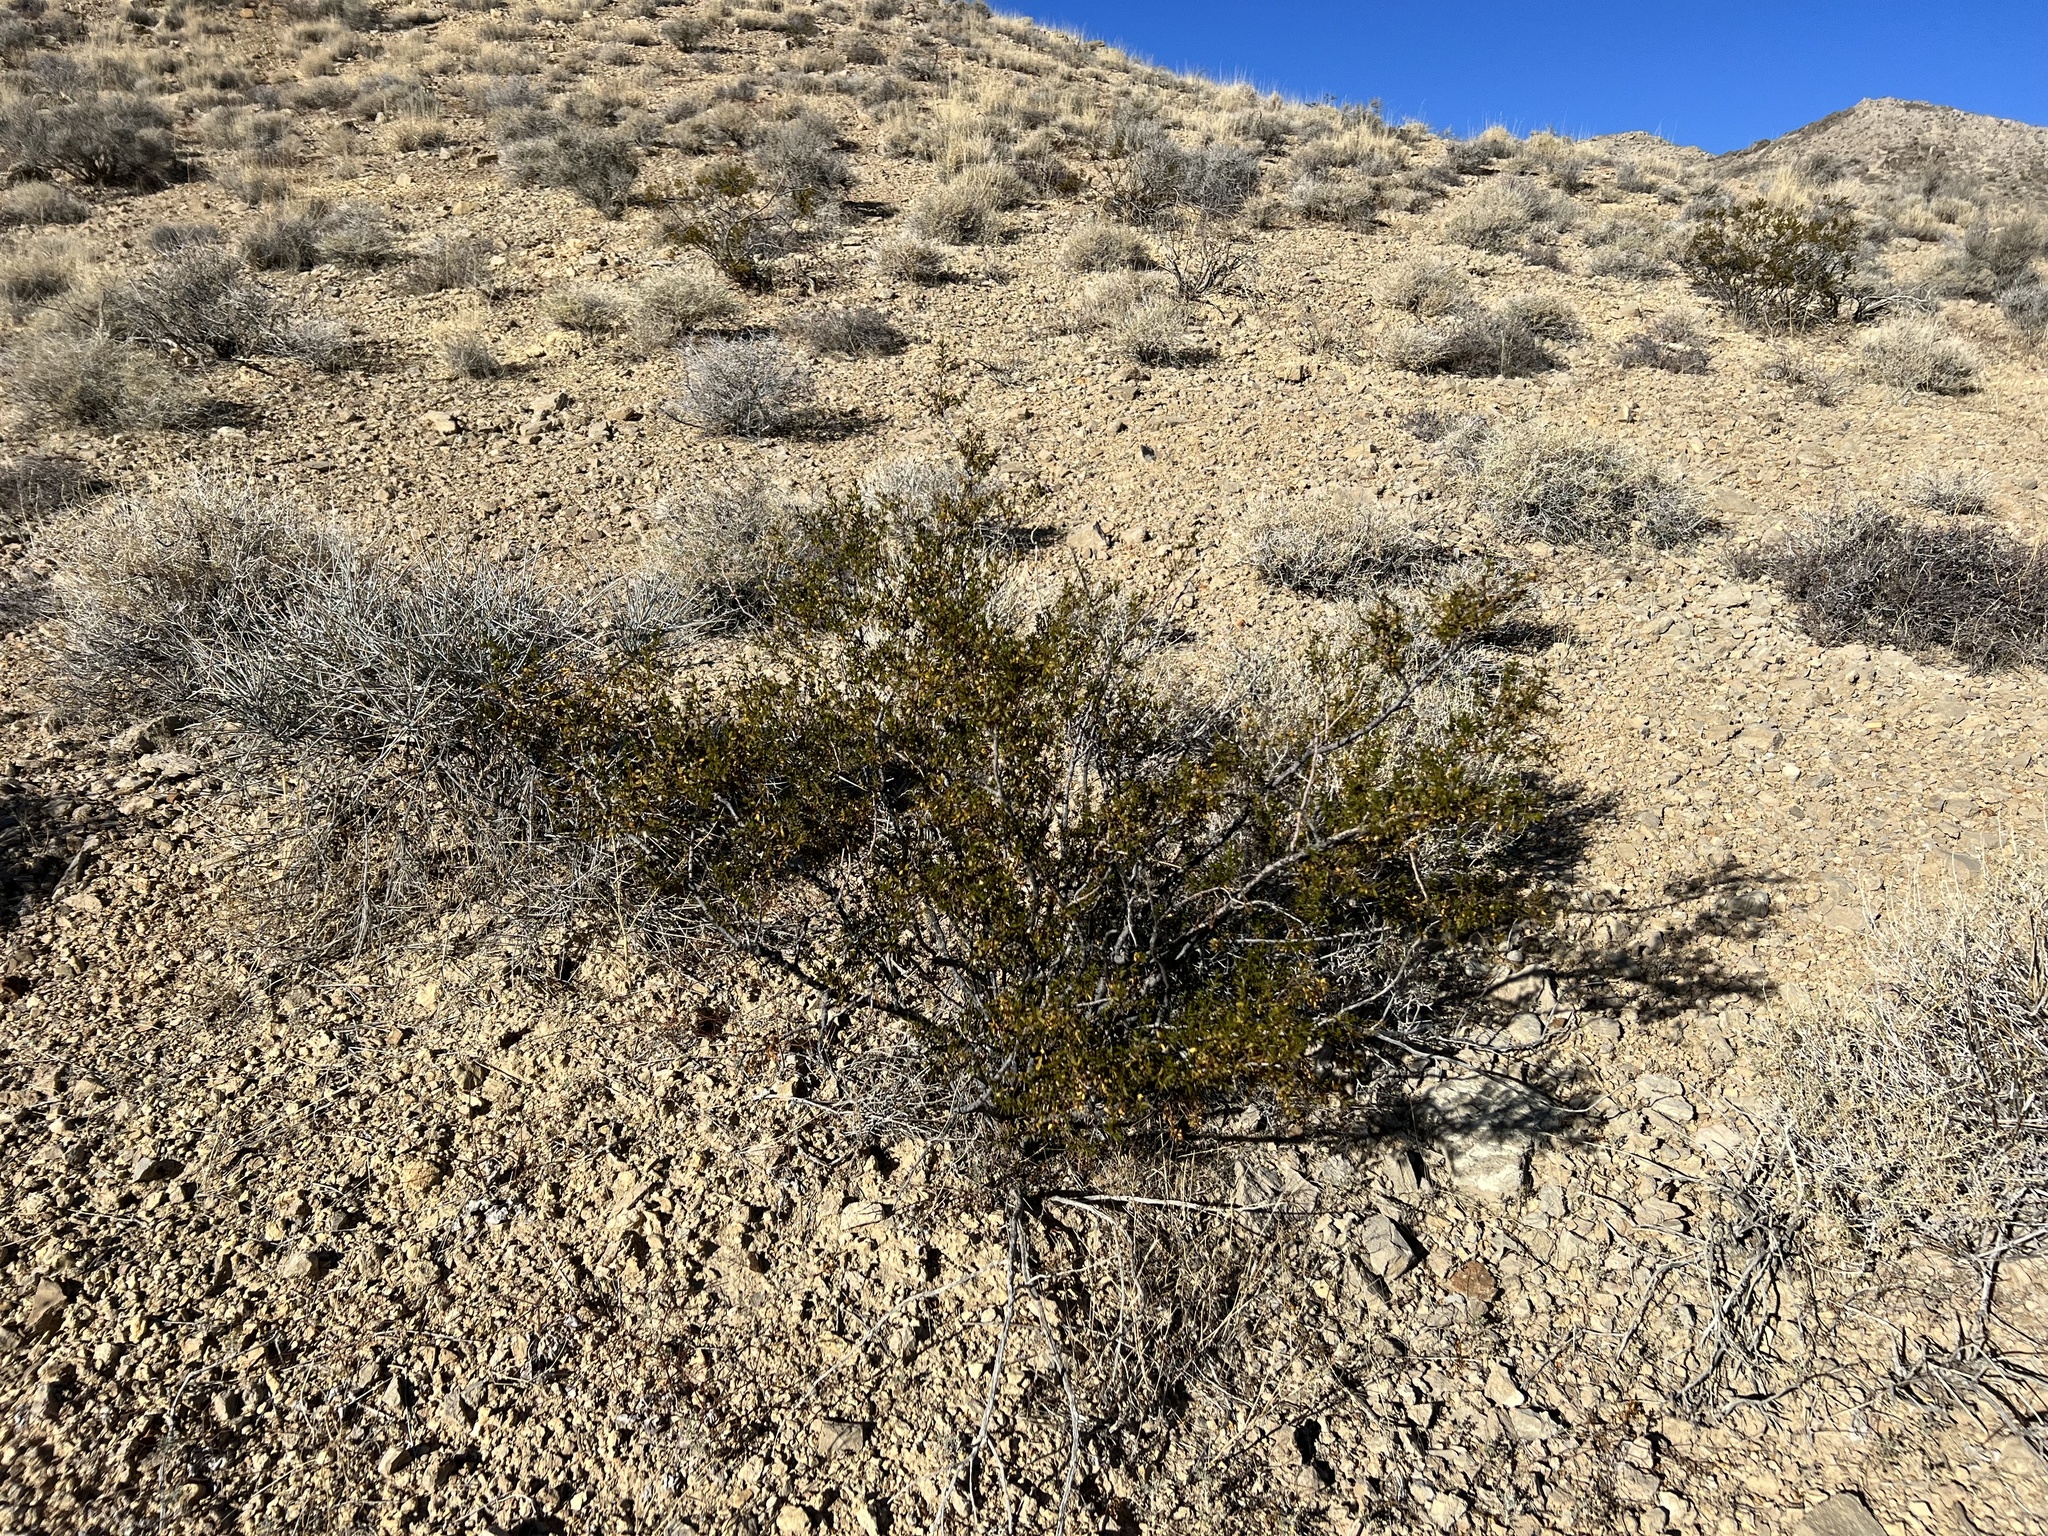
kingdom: Plantae
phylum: Tracheophyta
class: Magnoliopsida
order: Zygophyllales
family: Zygophyllaceae
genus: Larrea
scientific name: Larrea tridentata
